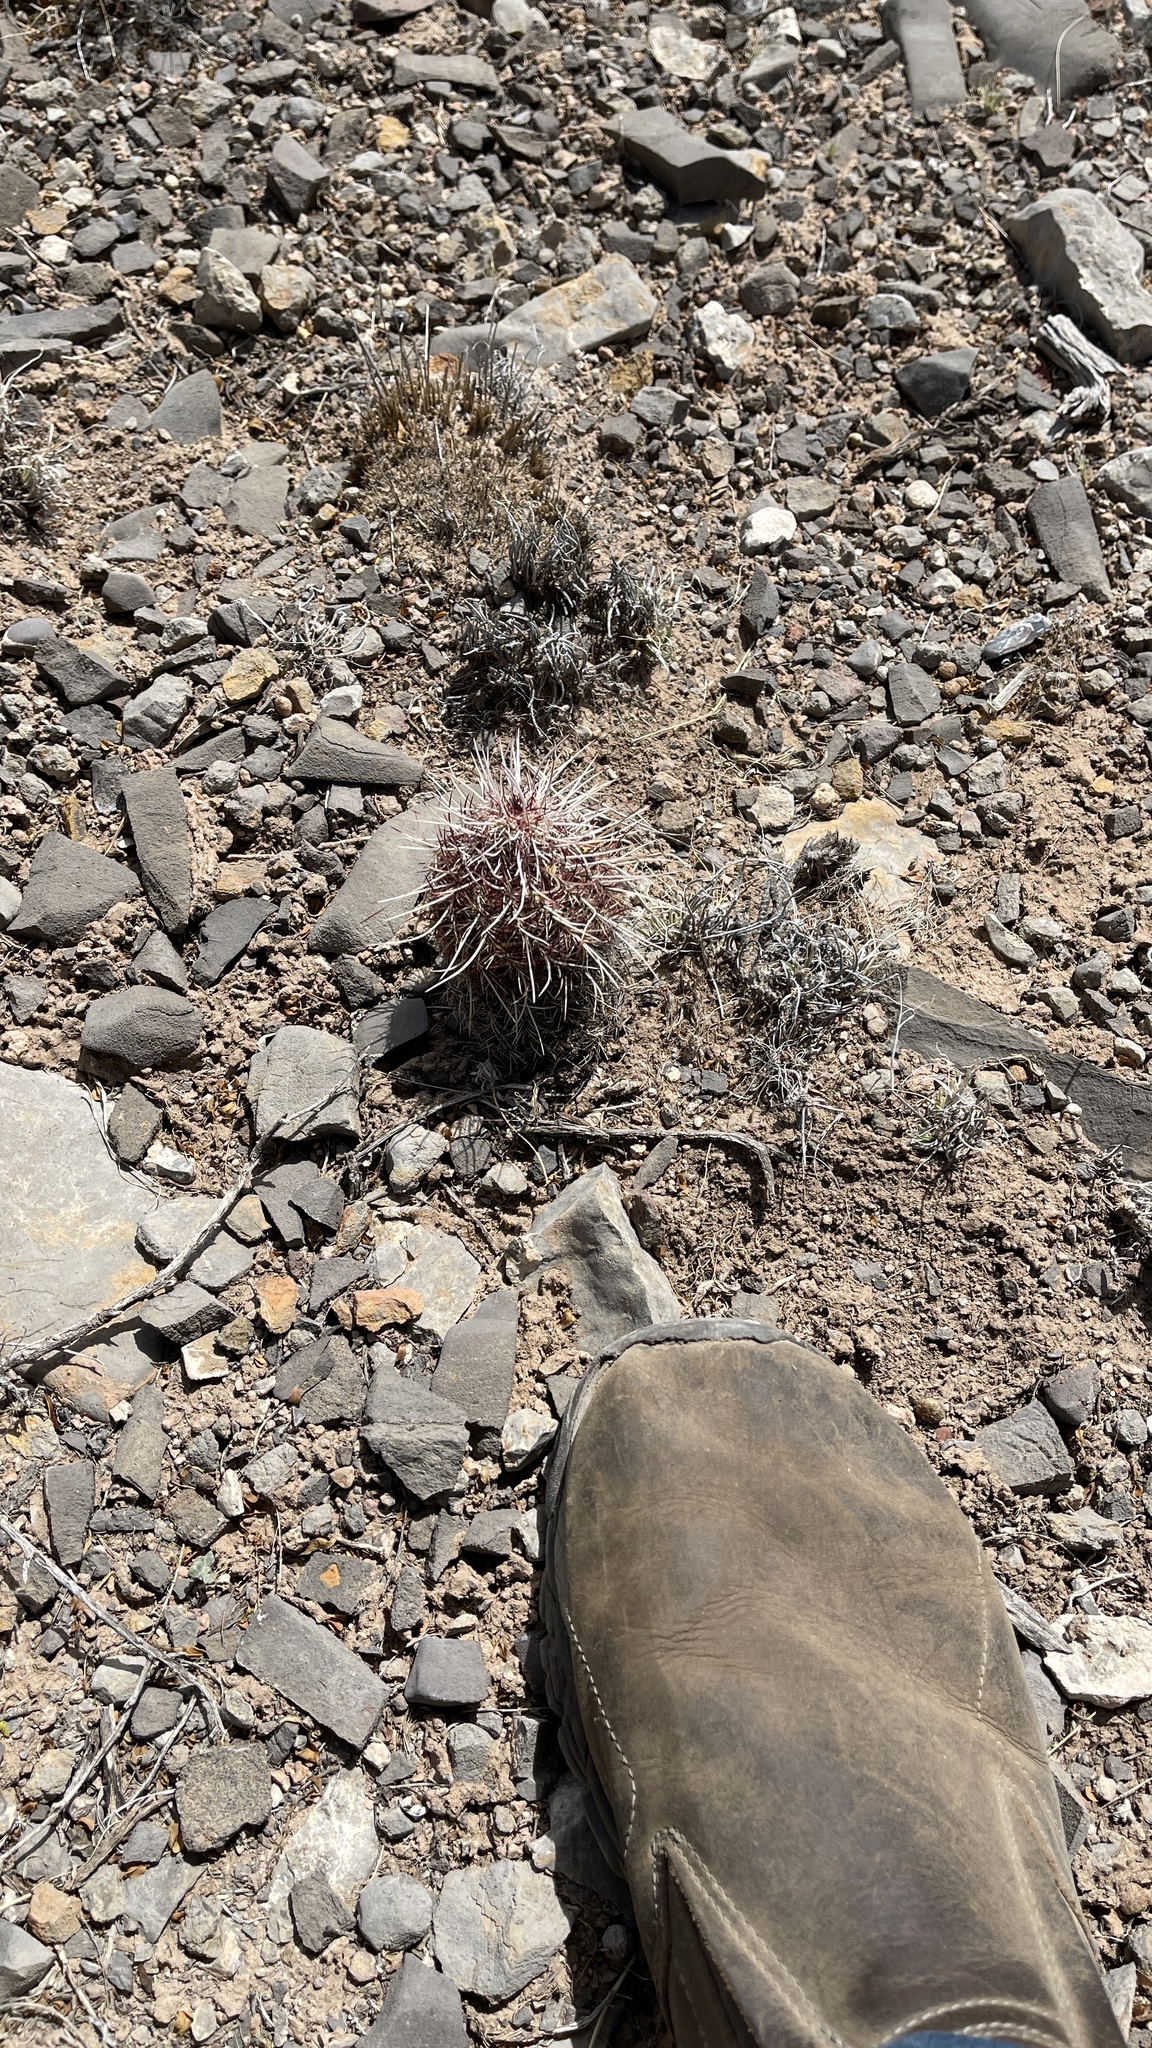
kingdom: Plantae
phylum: Tracheophyta
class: Magnoliopsida
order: Caryophyllales
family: Cactaceae
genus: Echinocereus
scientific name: Echinocereus viridiflorus
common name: Nylon hedgehog cactus
